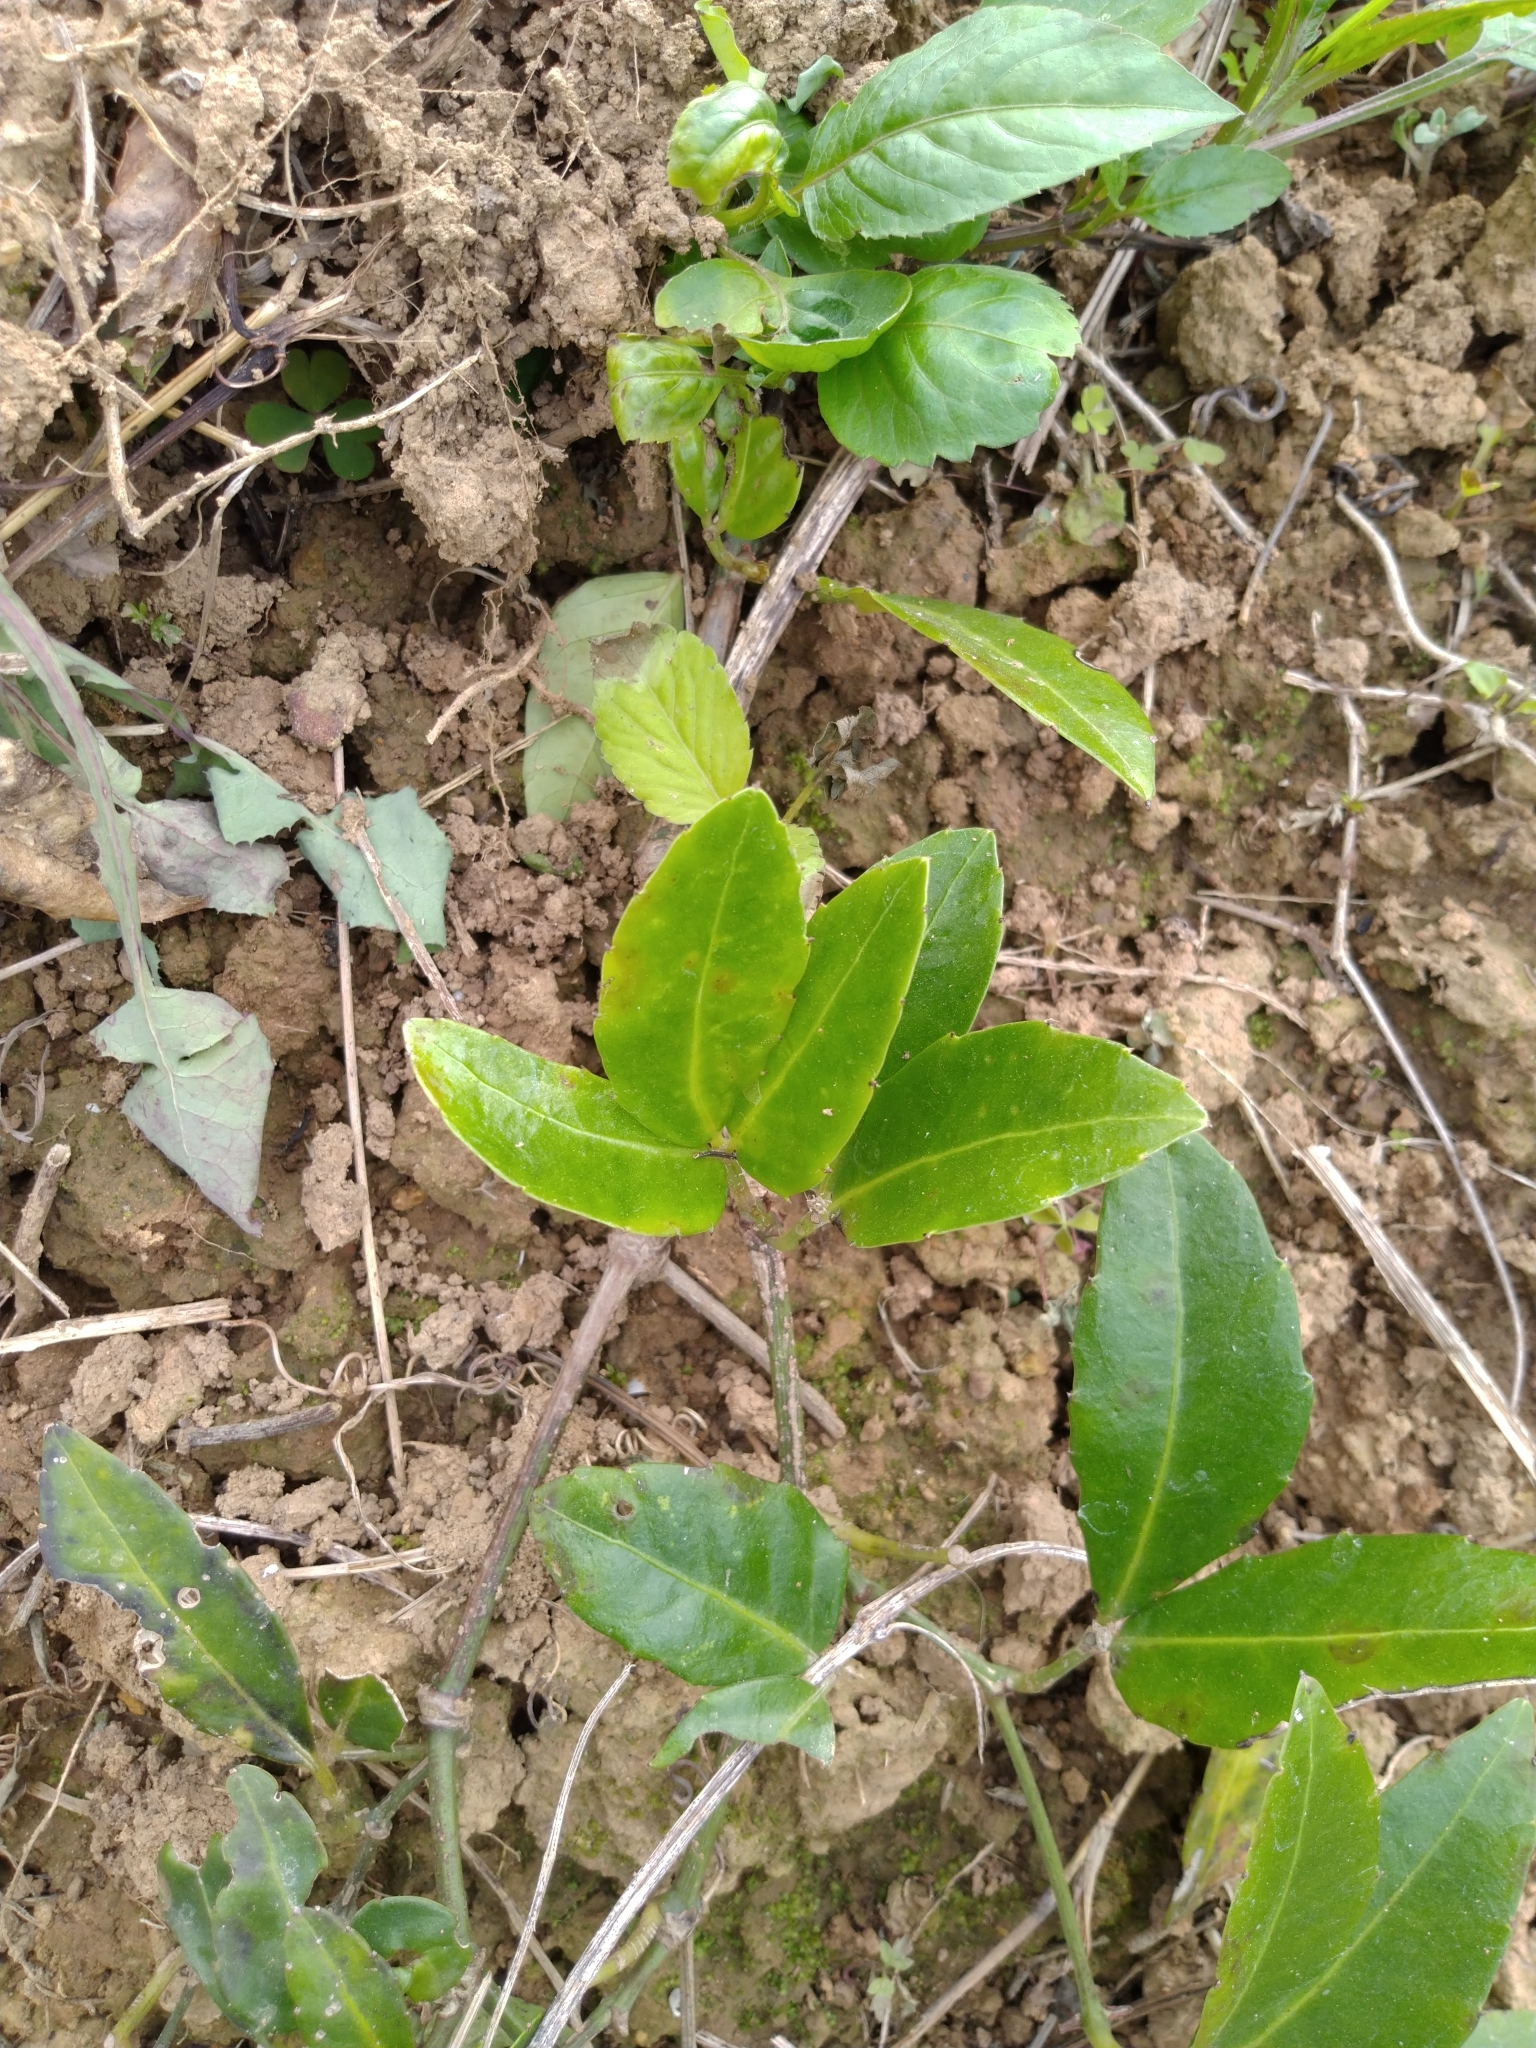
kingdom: Plantae
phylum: Tracheophyta
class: Magnoliopsida
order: Vitales
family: Vitaceae
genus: Tetrastigma
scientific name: Tetrastigma formosanum
